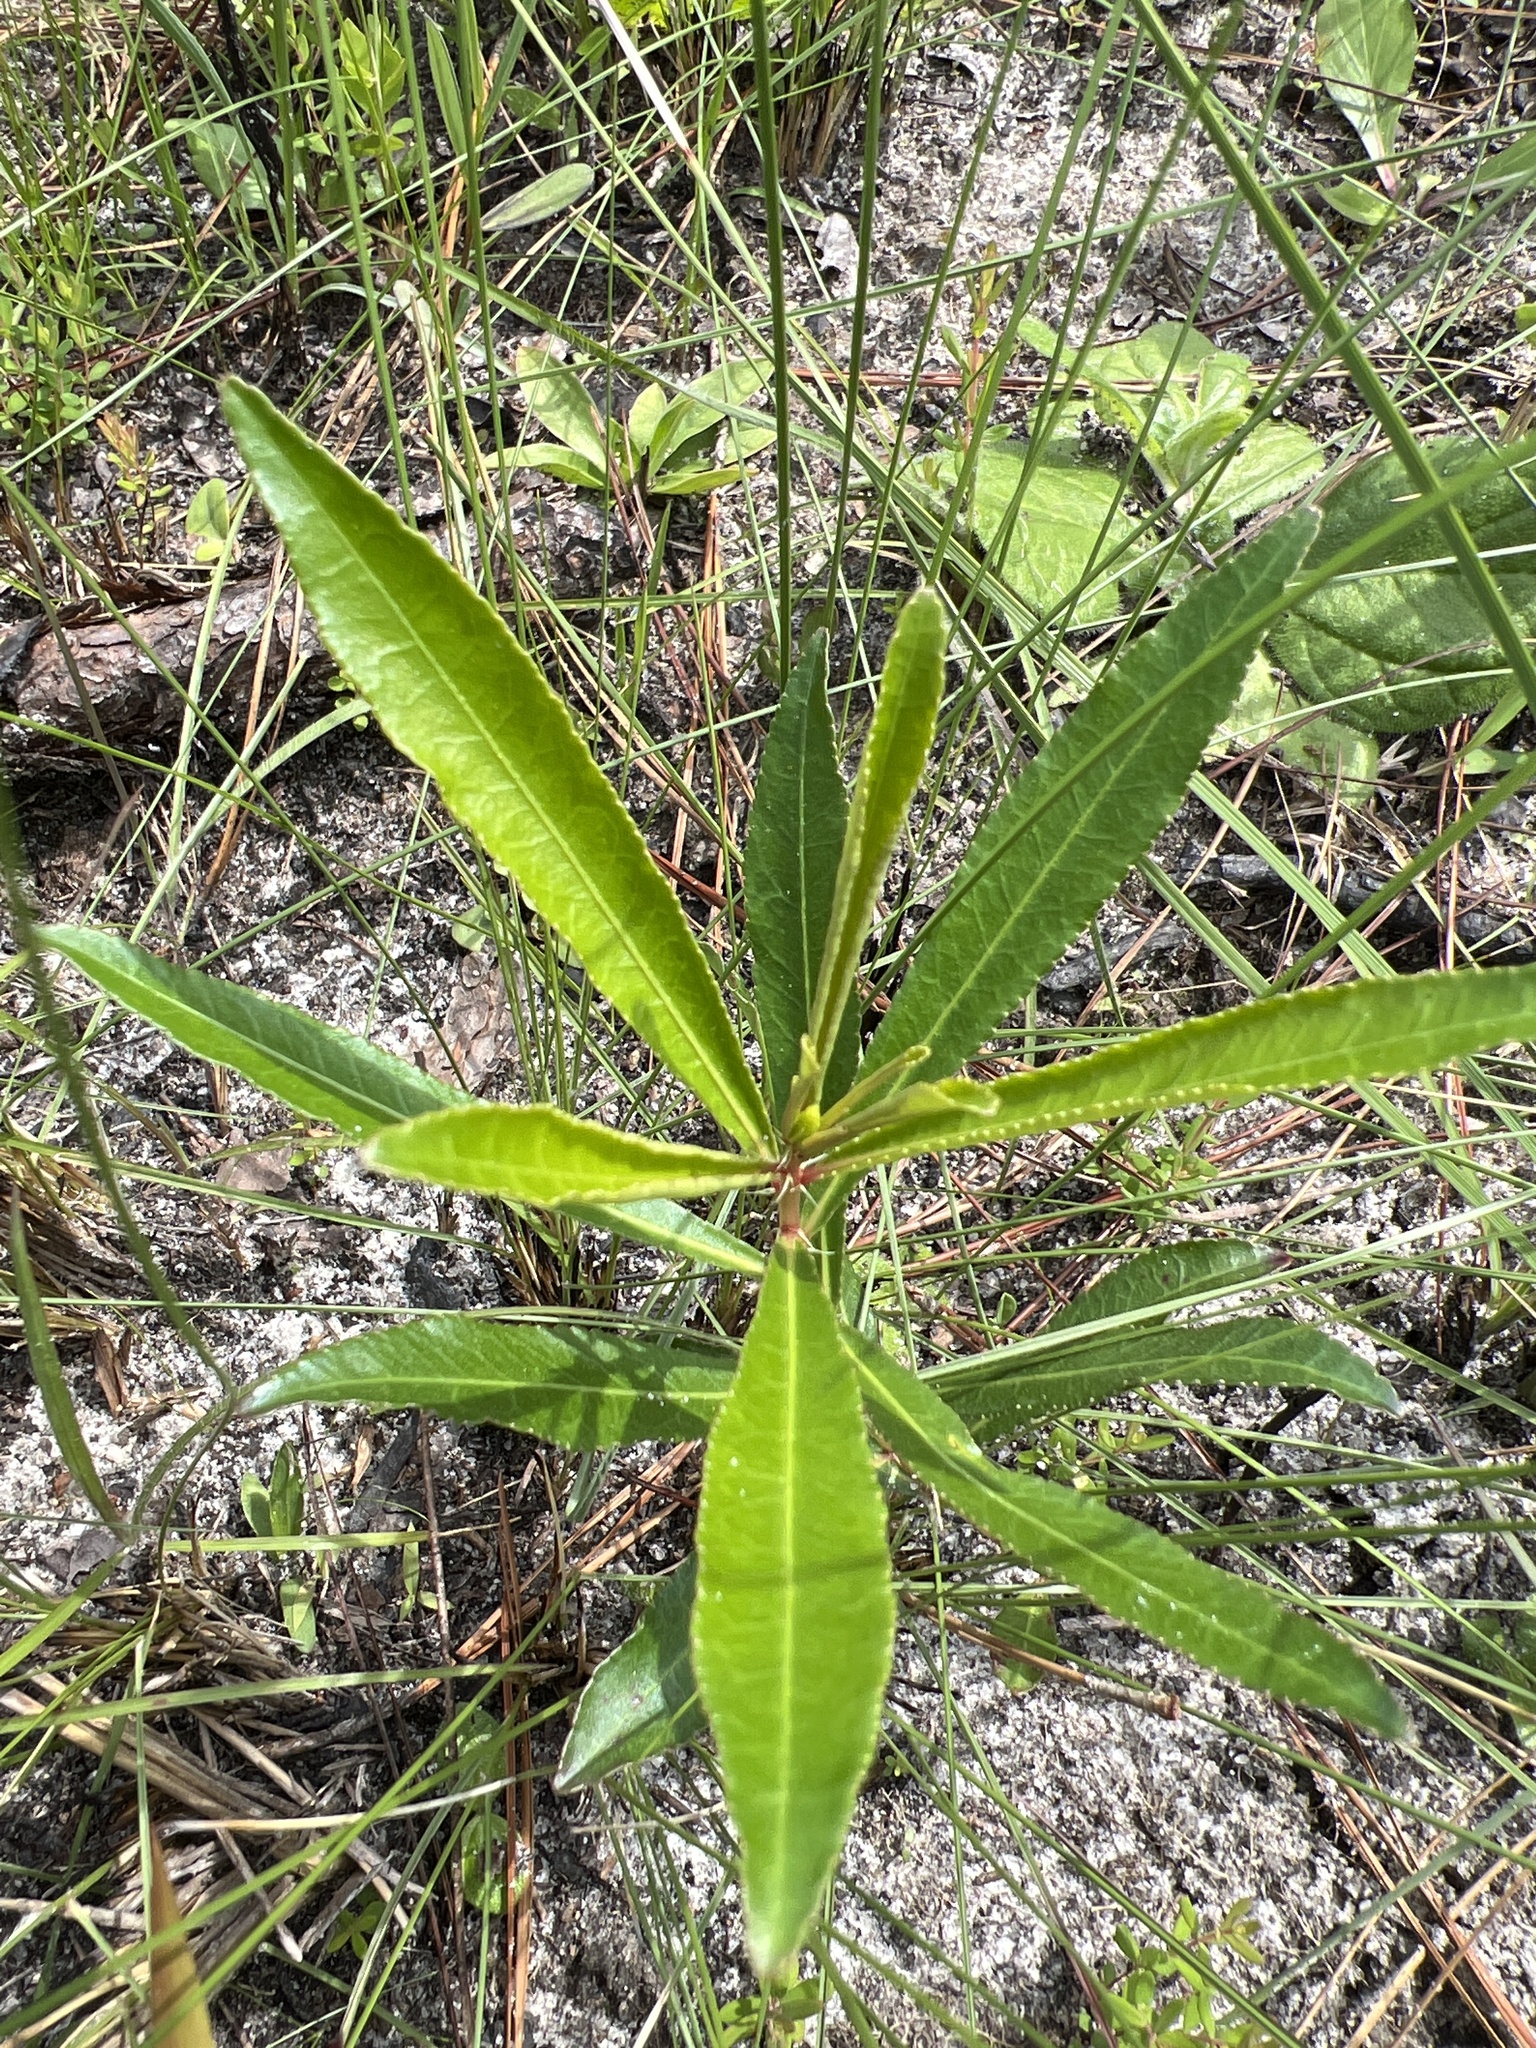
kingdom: Plantae
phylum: Tracheophyta
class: Magnoliopsida
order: Malpighiales
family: Euphorbiaceae
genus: Stillingia
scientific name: Stillingia sylvatica
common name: Queen's-delight
